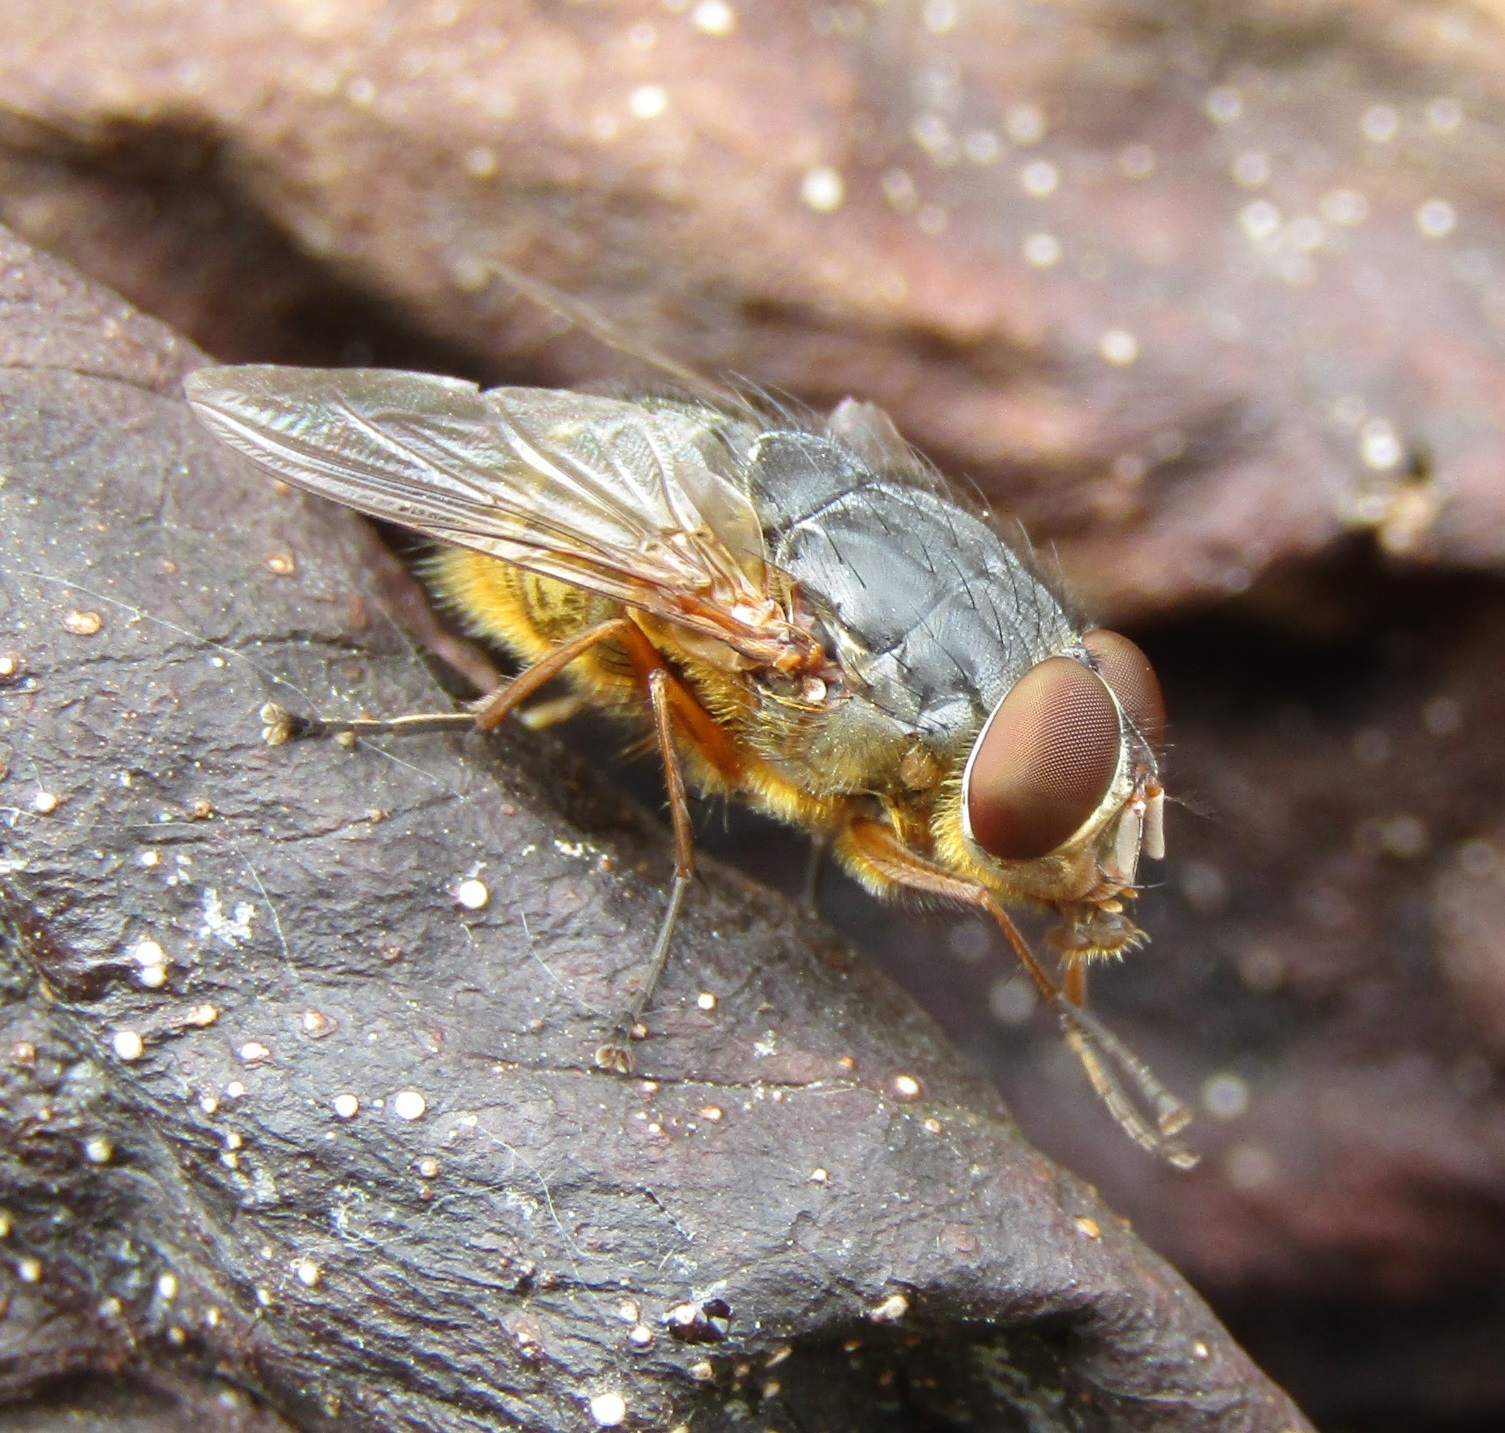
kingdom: Animalia
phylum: Arthropoda
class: Insecta
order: Diptera
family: Calliphoridae
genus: Calliphora
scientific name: Calliphora stygia
